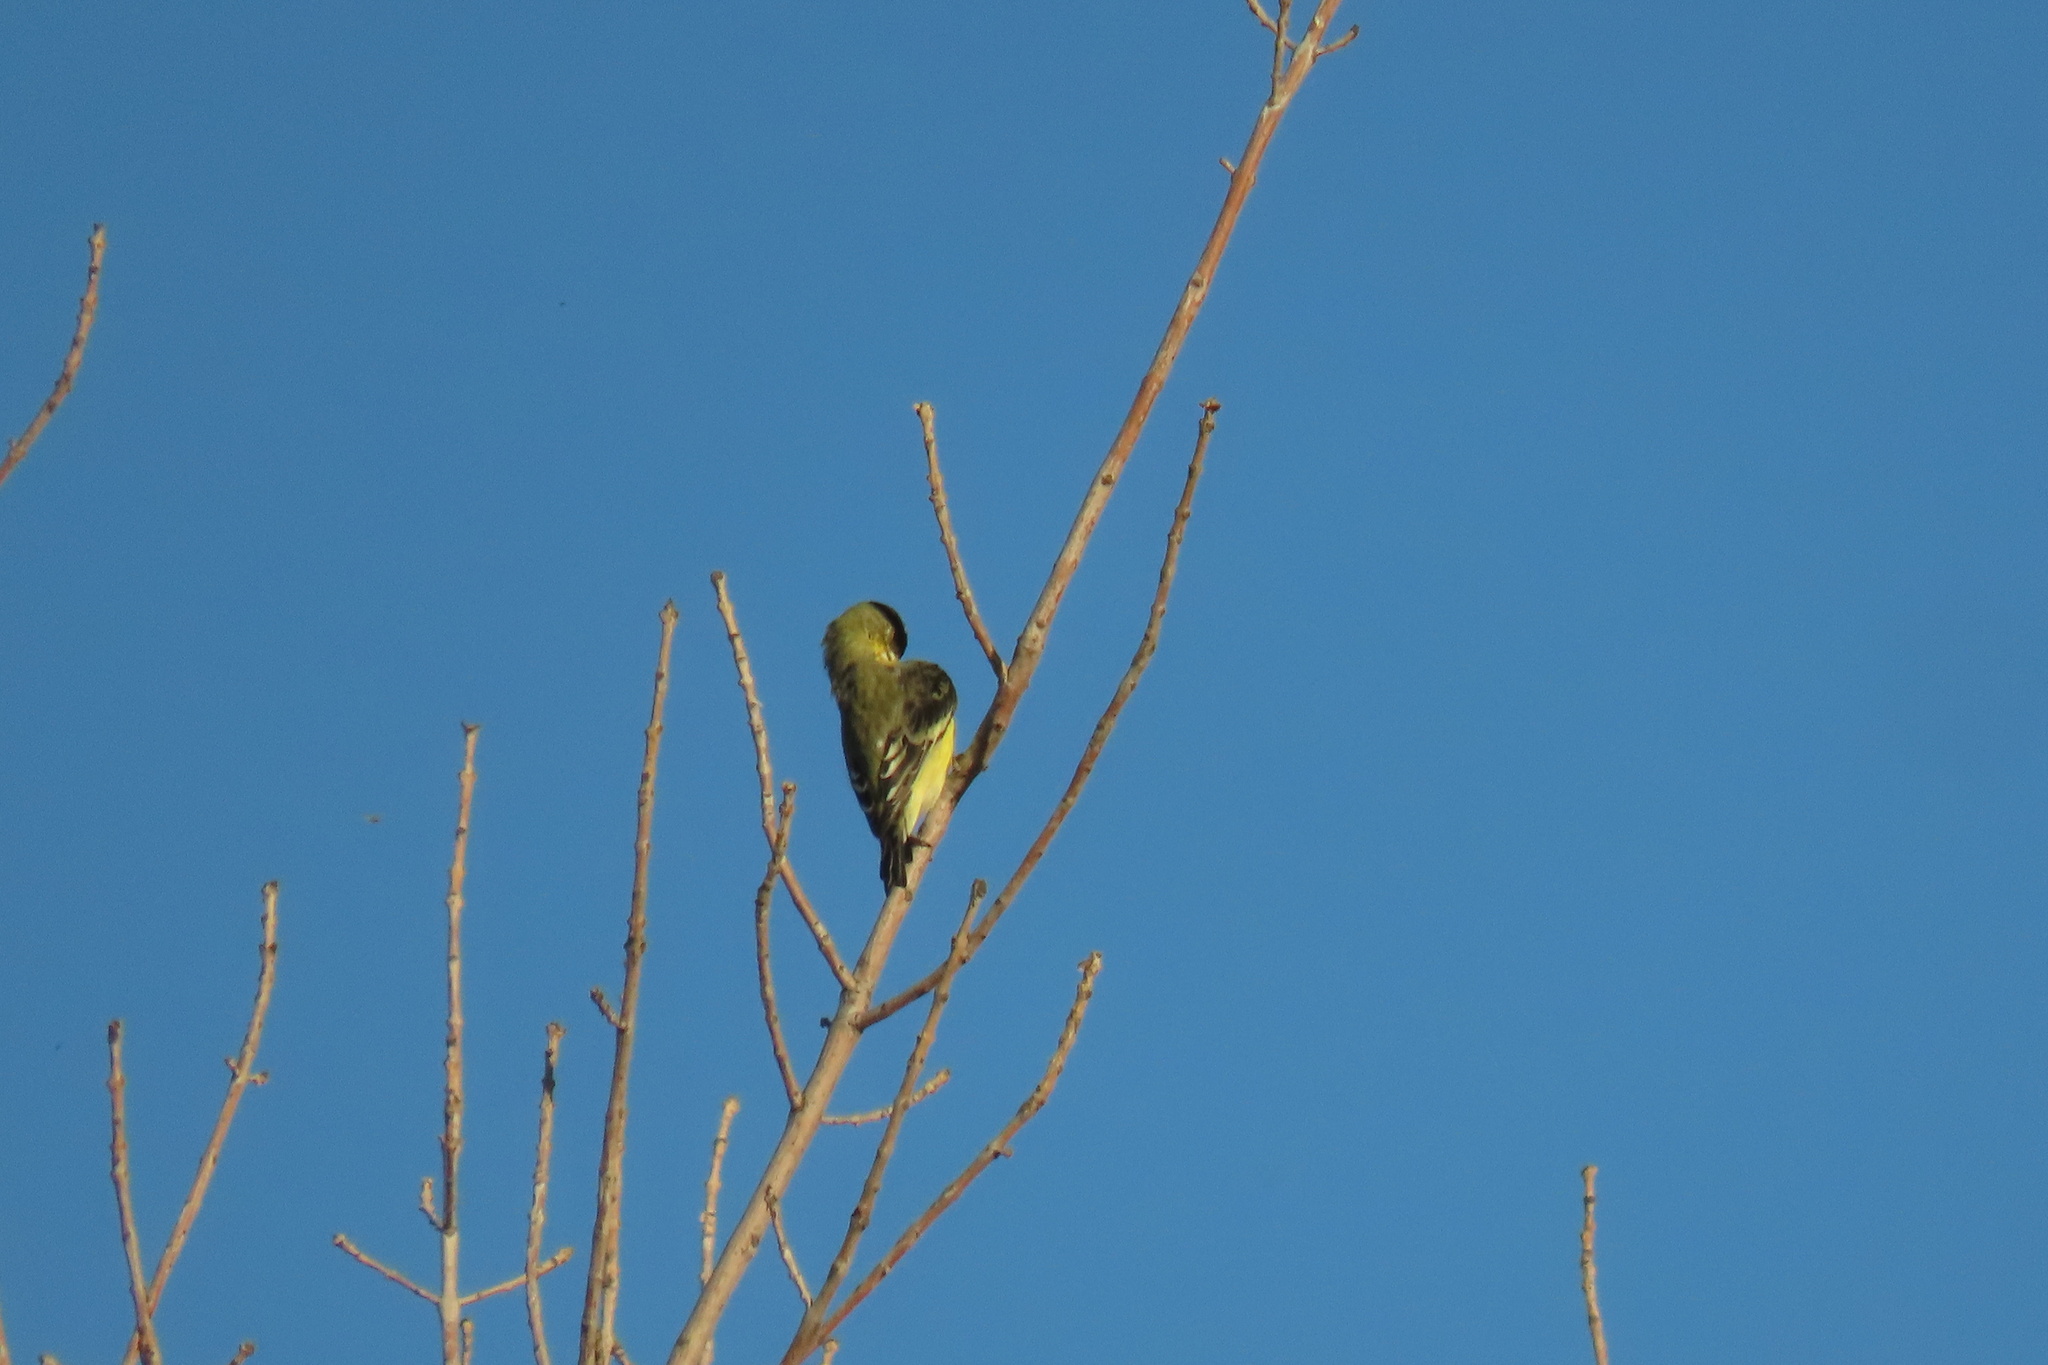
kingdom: Animalia
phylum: Chordata
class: Aves
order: Passeriformes
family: Fringillidae
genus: Spinus
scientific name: Spinus psaltria
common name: Lesser goldfinch
